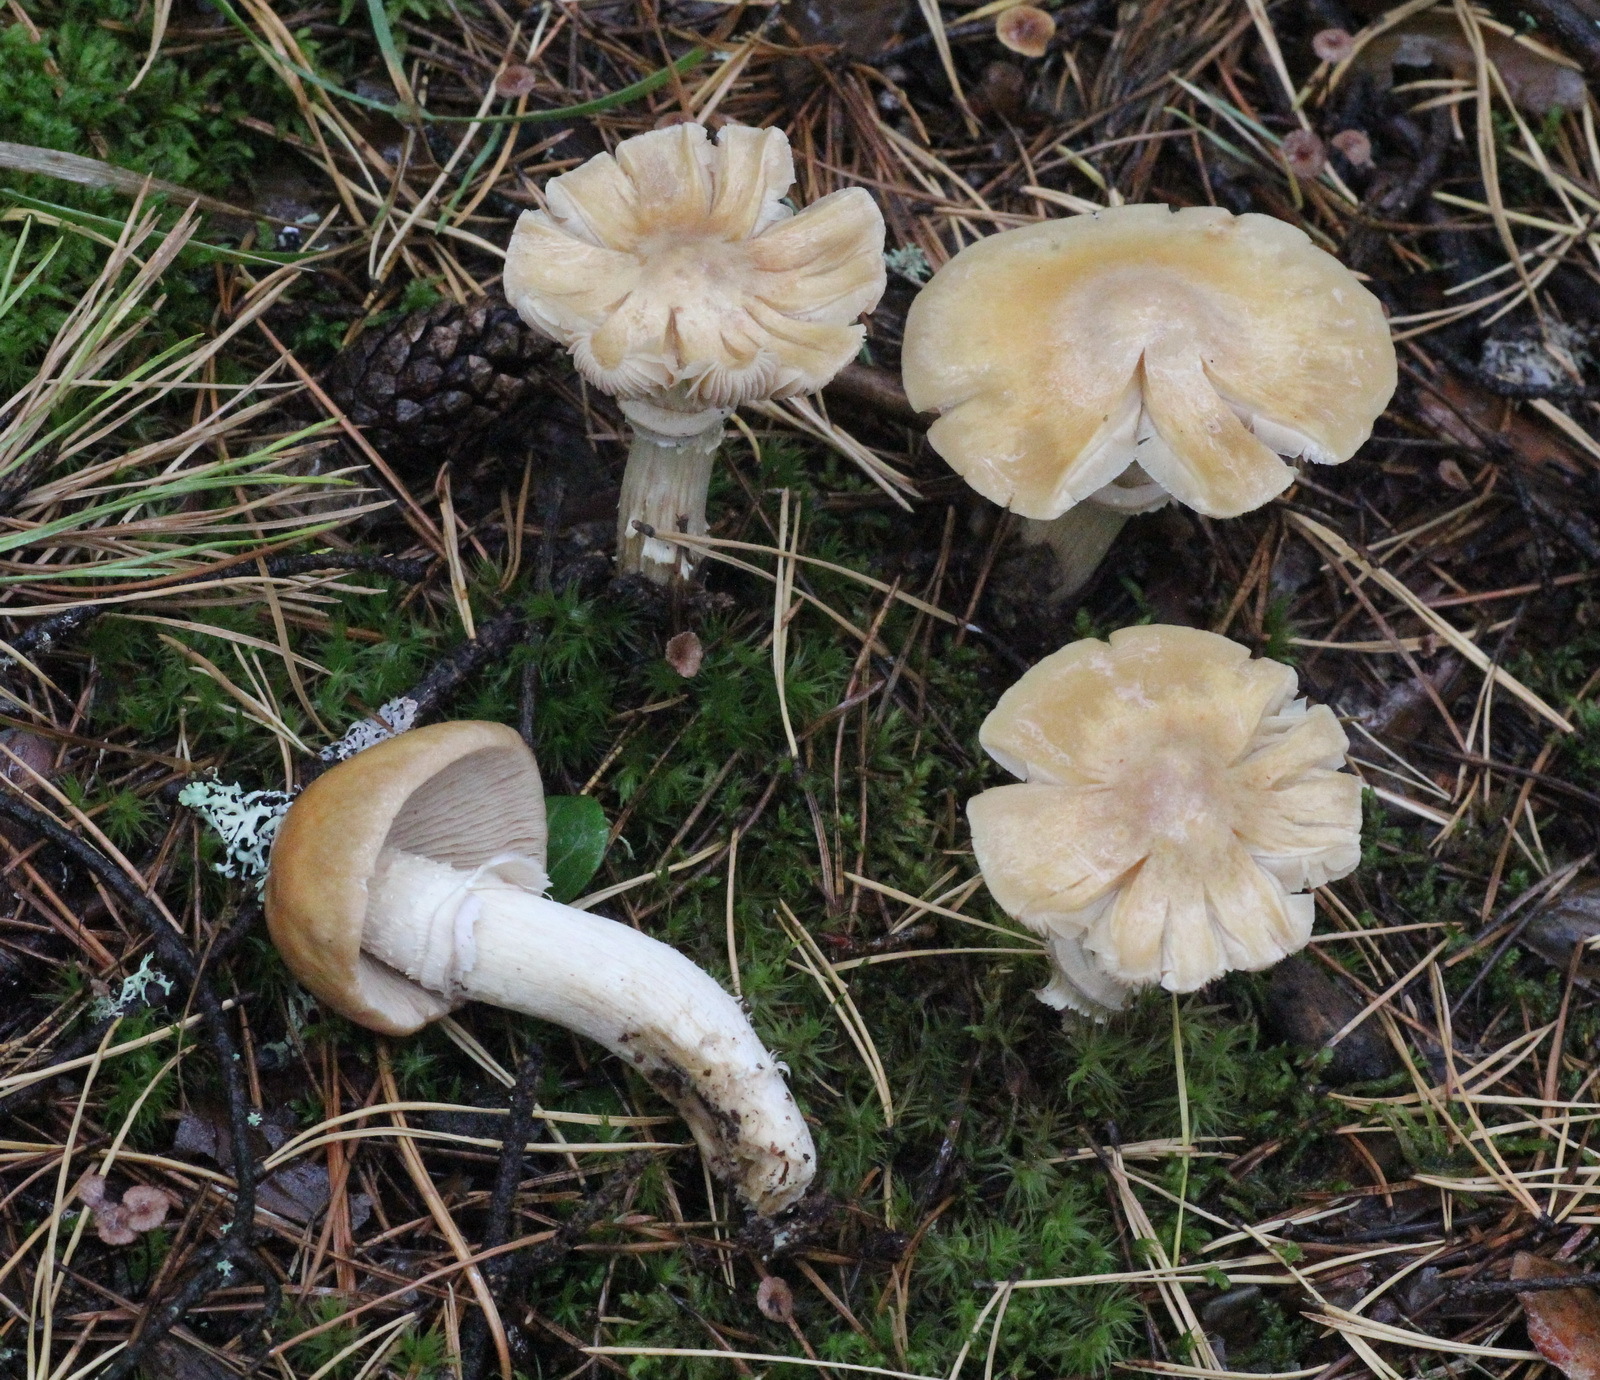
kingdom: Fungi
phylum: Basidiomycota
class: Agaricomycetes
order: Agaricales
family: Cortinariaceae
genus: Cortinarius
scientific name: Cortinarius caperatus
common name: The gypsy
